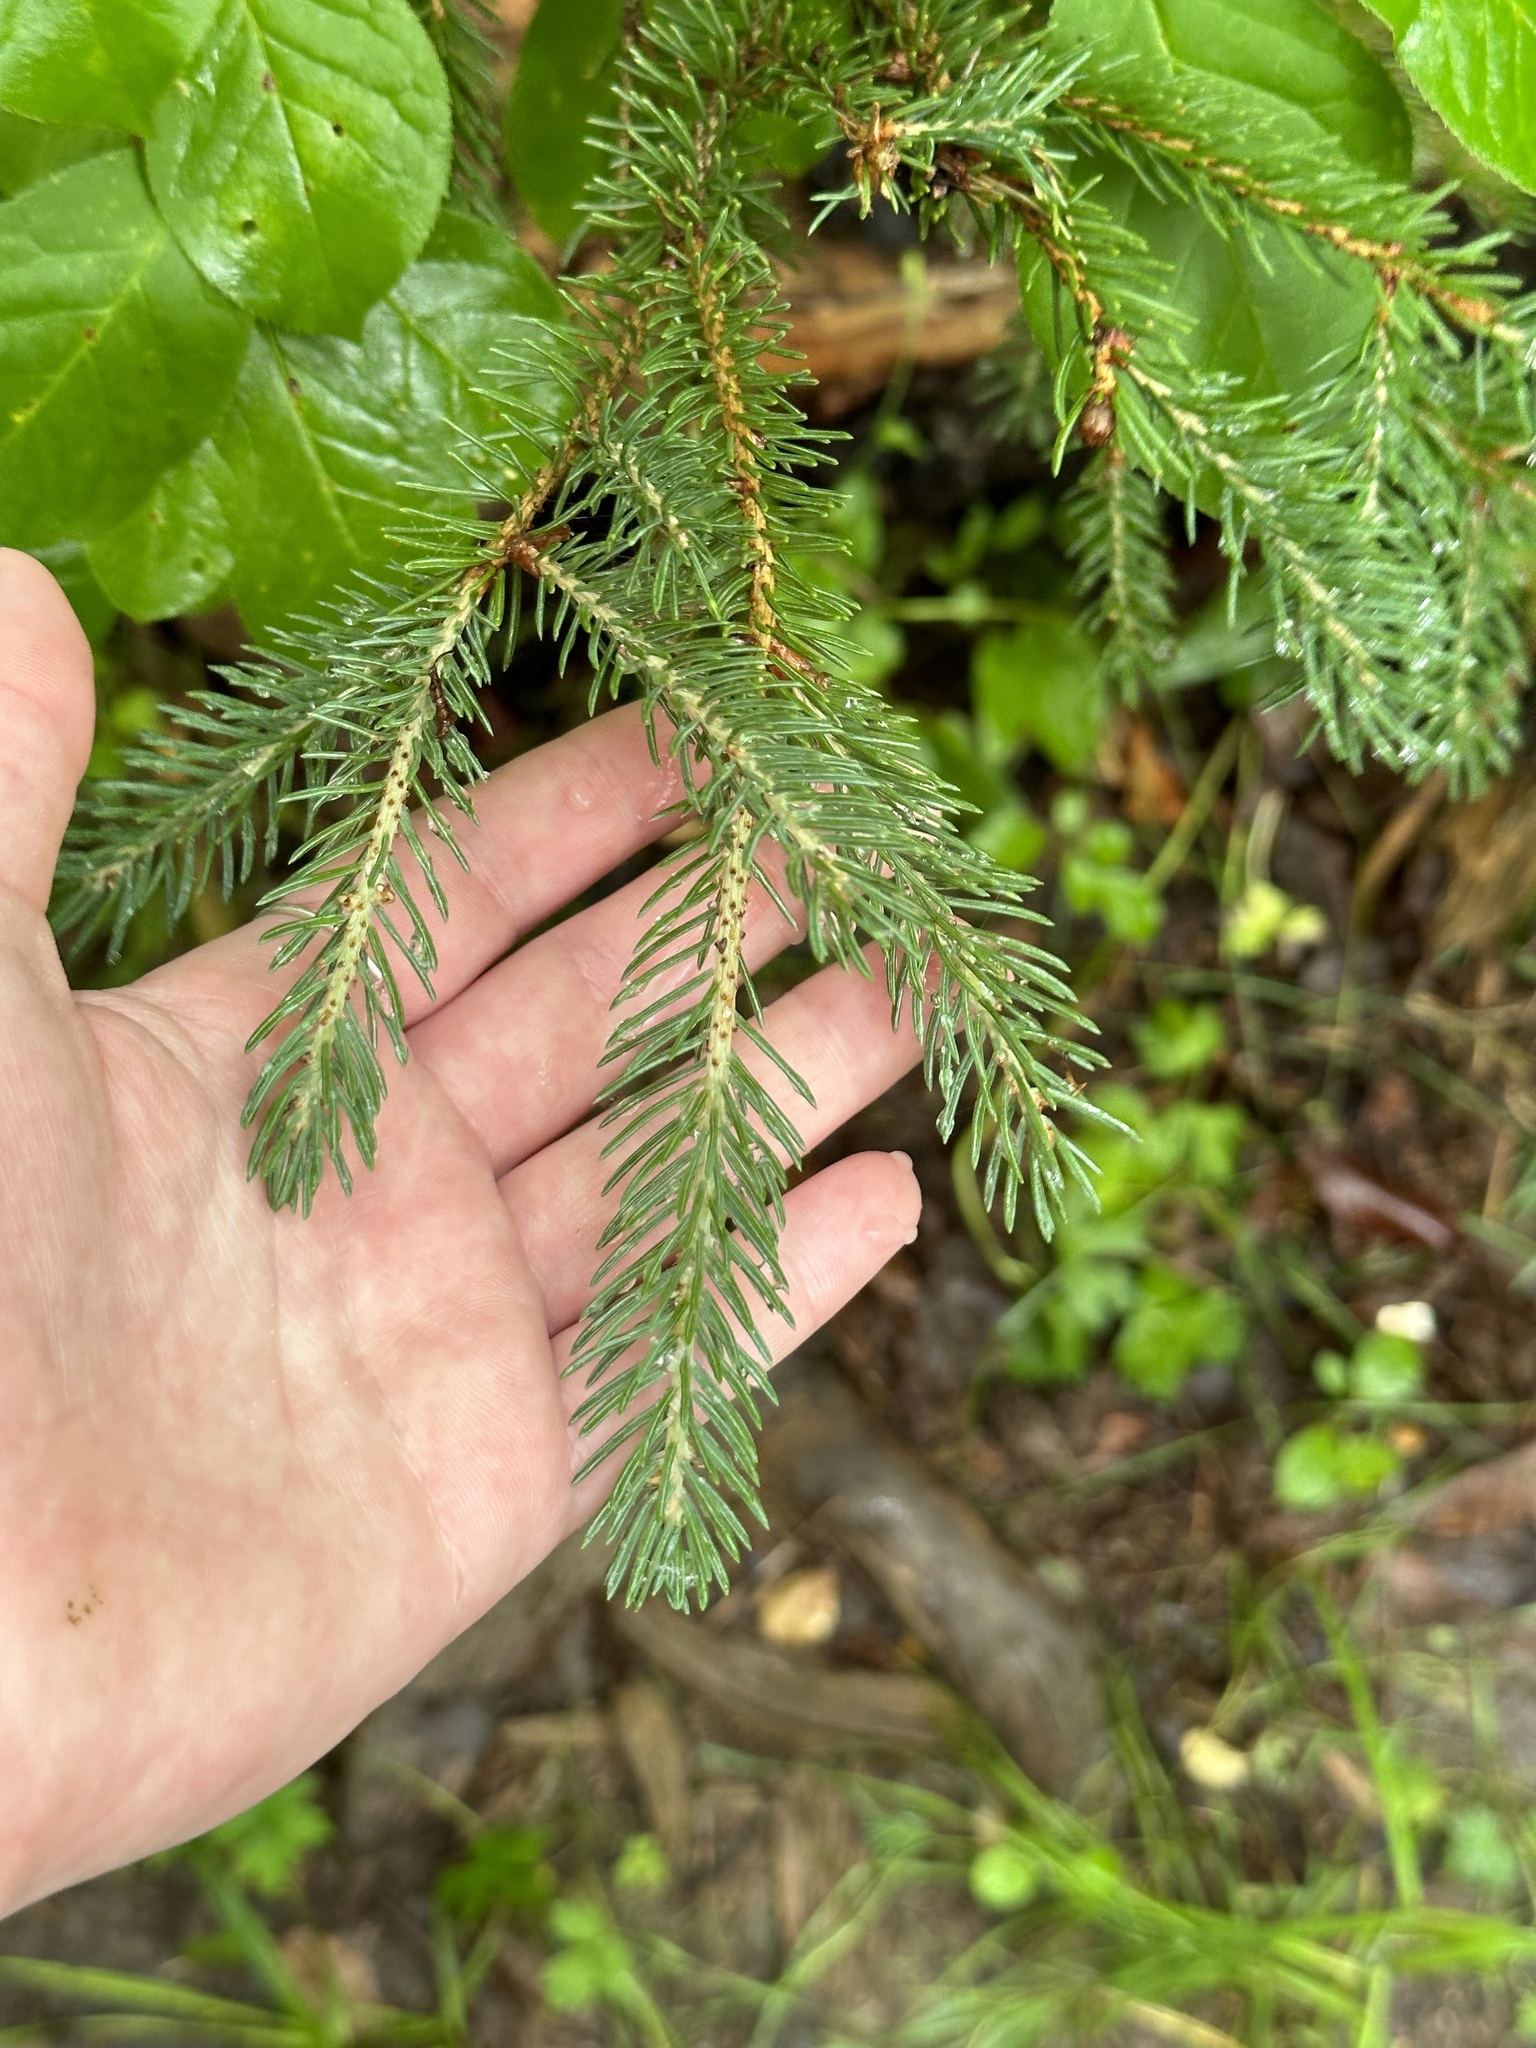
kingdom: Plantae
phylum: Tracheophyta
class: Pinopsida
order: Pinales
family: Pinaceae
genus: Picea
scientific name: Picea glauca
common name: White spruce
